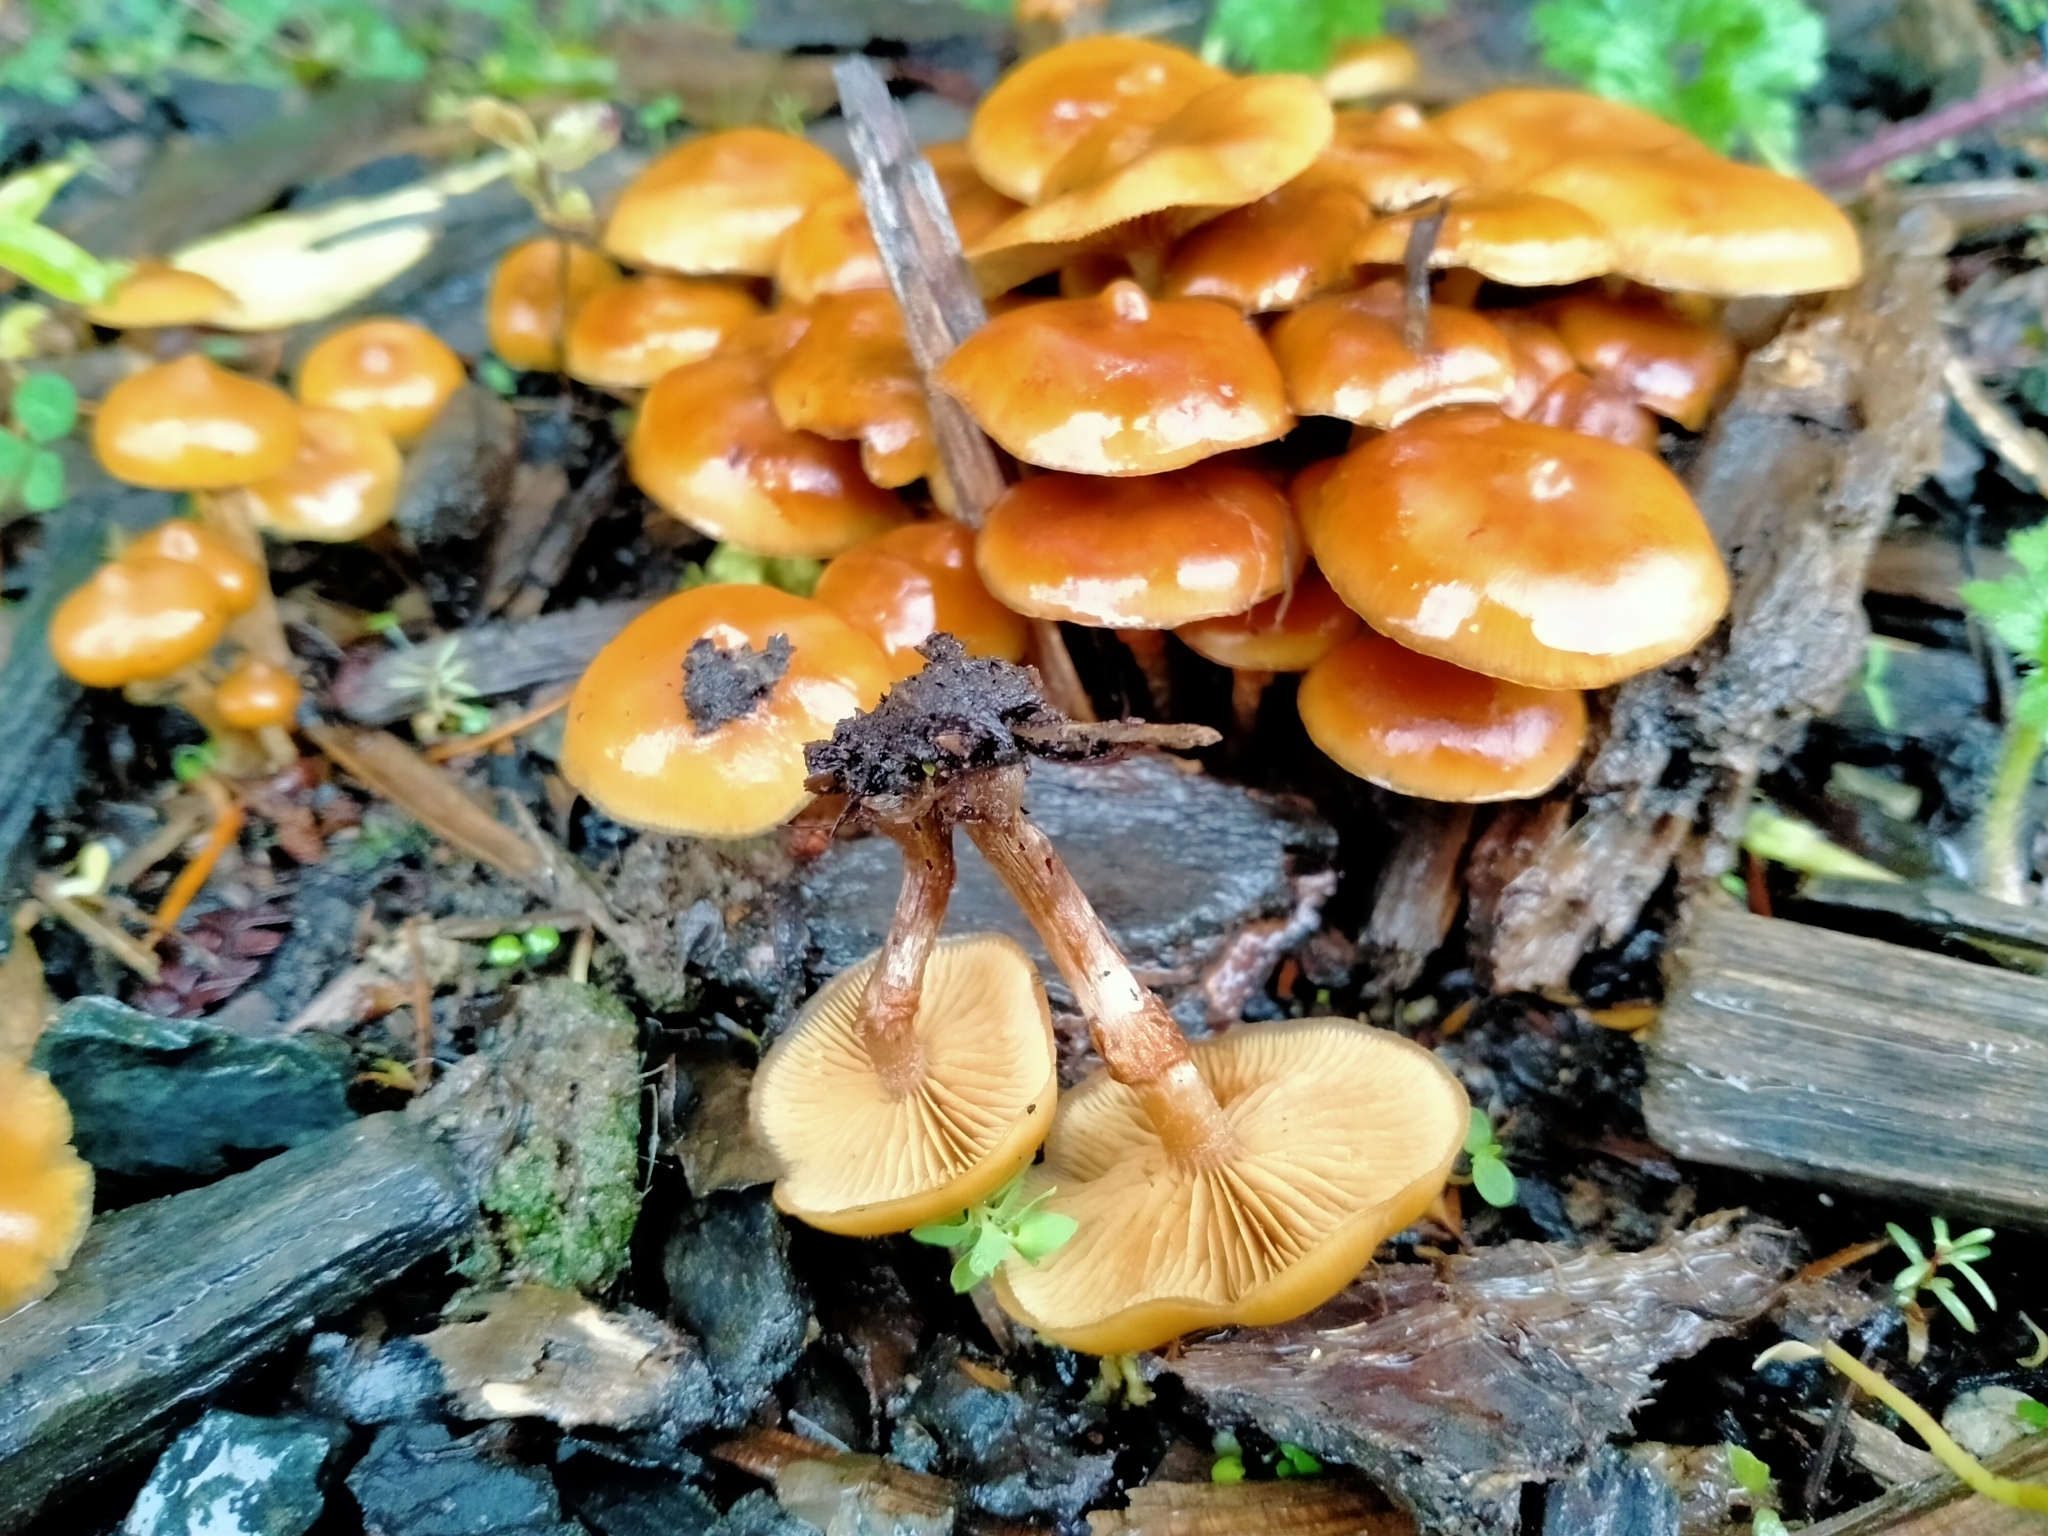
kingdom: Fungi
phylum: Basidiomycota
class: Agaricomycetes
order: Agaricales
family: Hymenogastraceae
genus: Galerina
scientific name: Galerina patagonica
